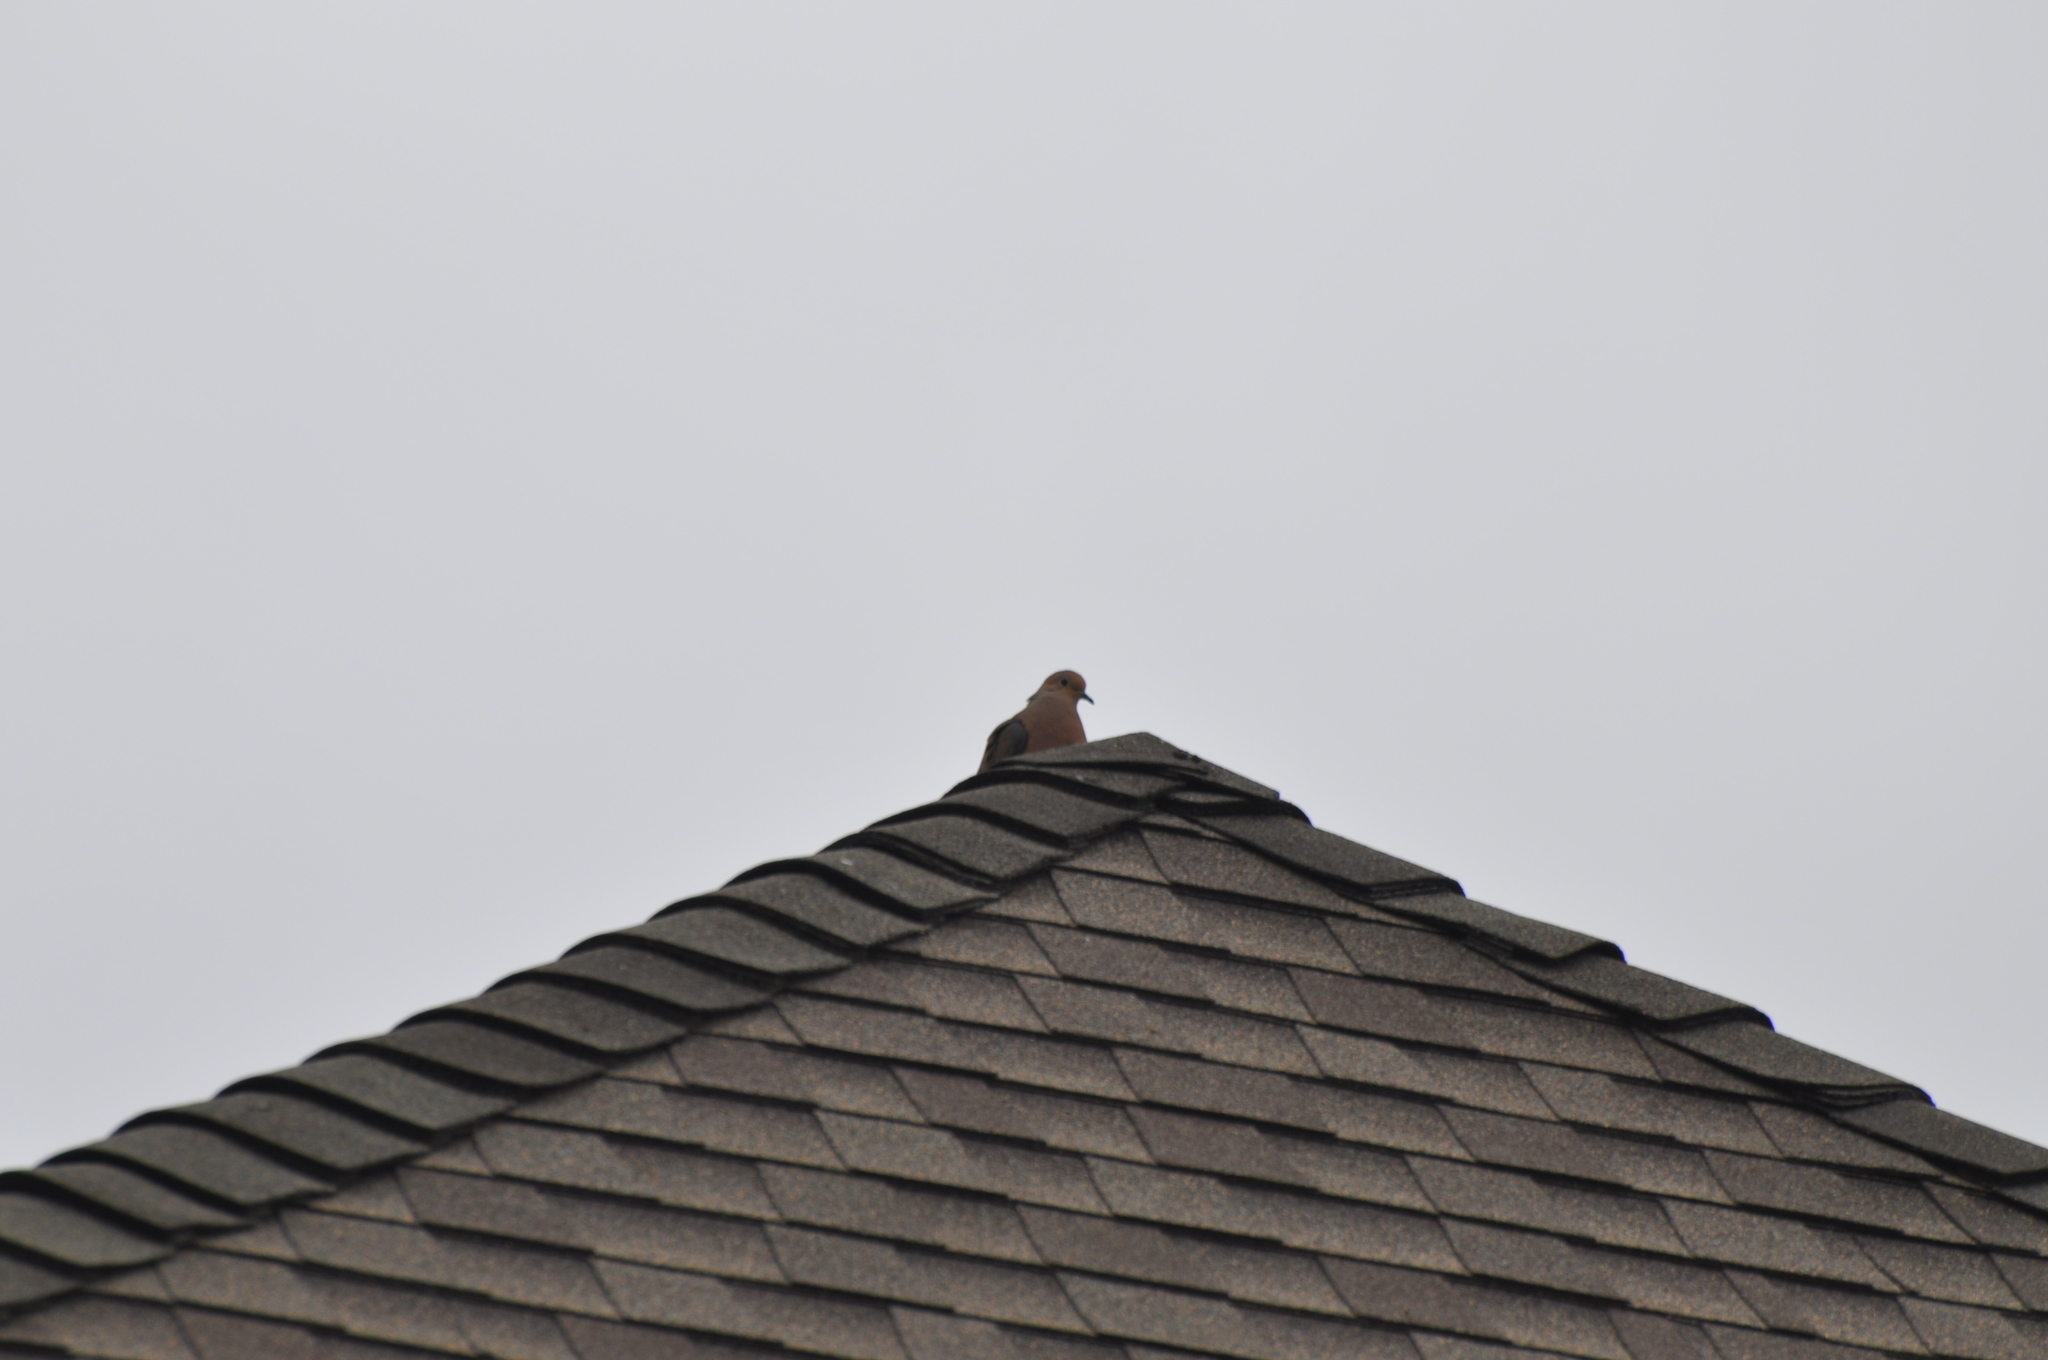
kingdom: Animalia
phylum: Chordata
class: Aves
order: Columbiformes
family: Columbidae
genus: Zenaida
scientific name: Zenaida macroura
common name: Mourning dove
